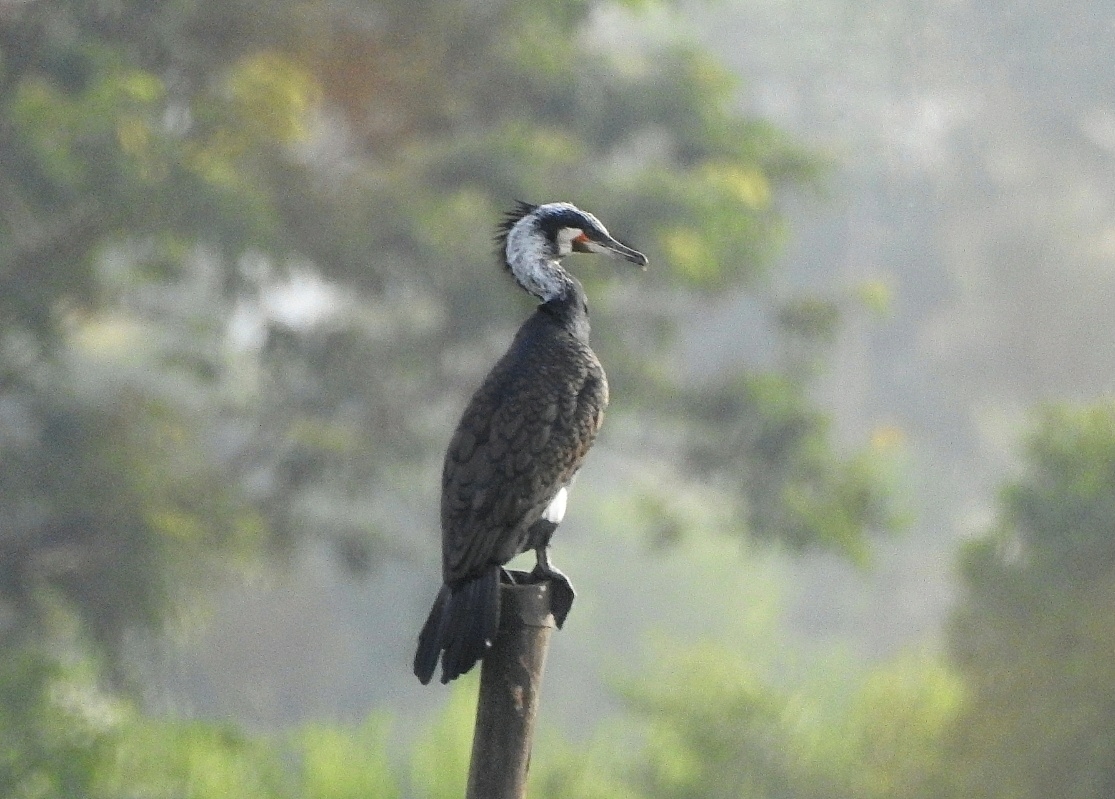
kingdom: Animalia
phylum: Chordata
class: Aves
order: Suliformes
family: Phalacrocoracidae
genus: Phalacrocorax
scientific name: Phalacrocorax carbo
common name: Great cormorant
